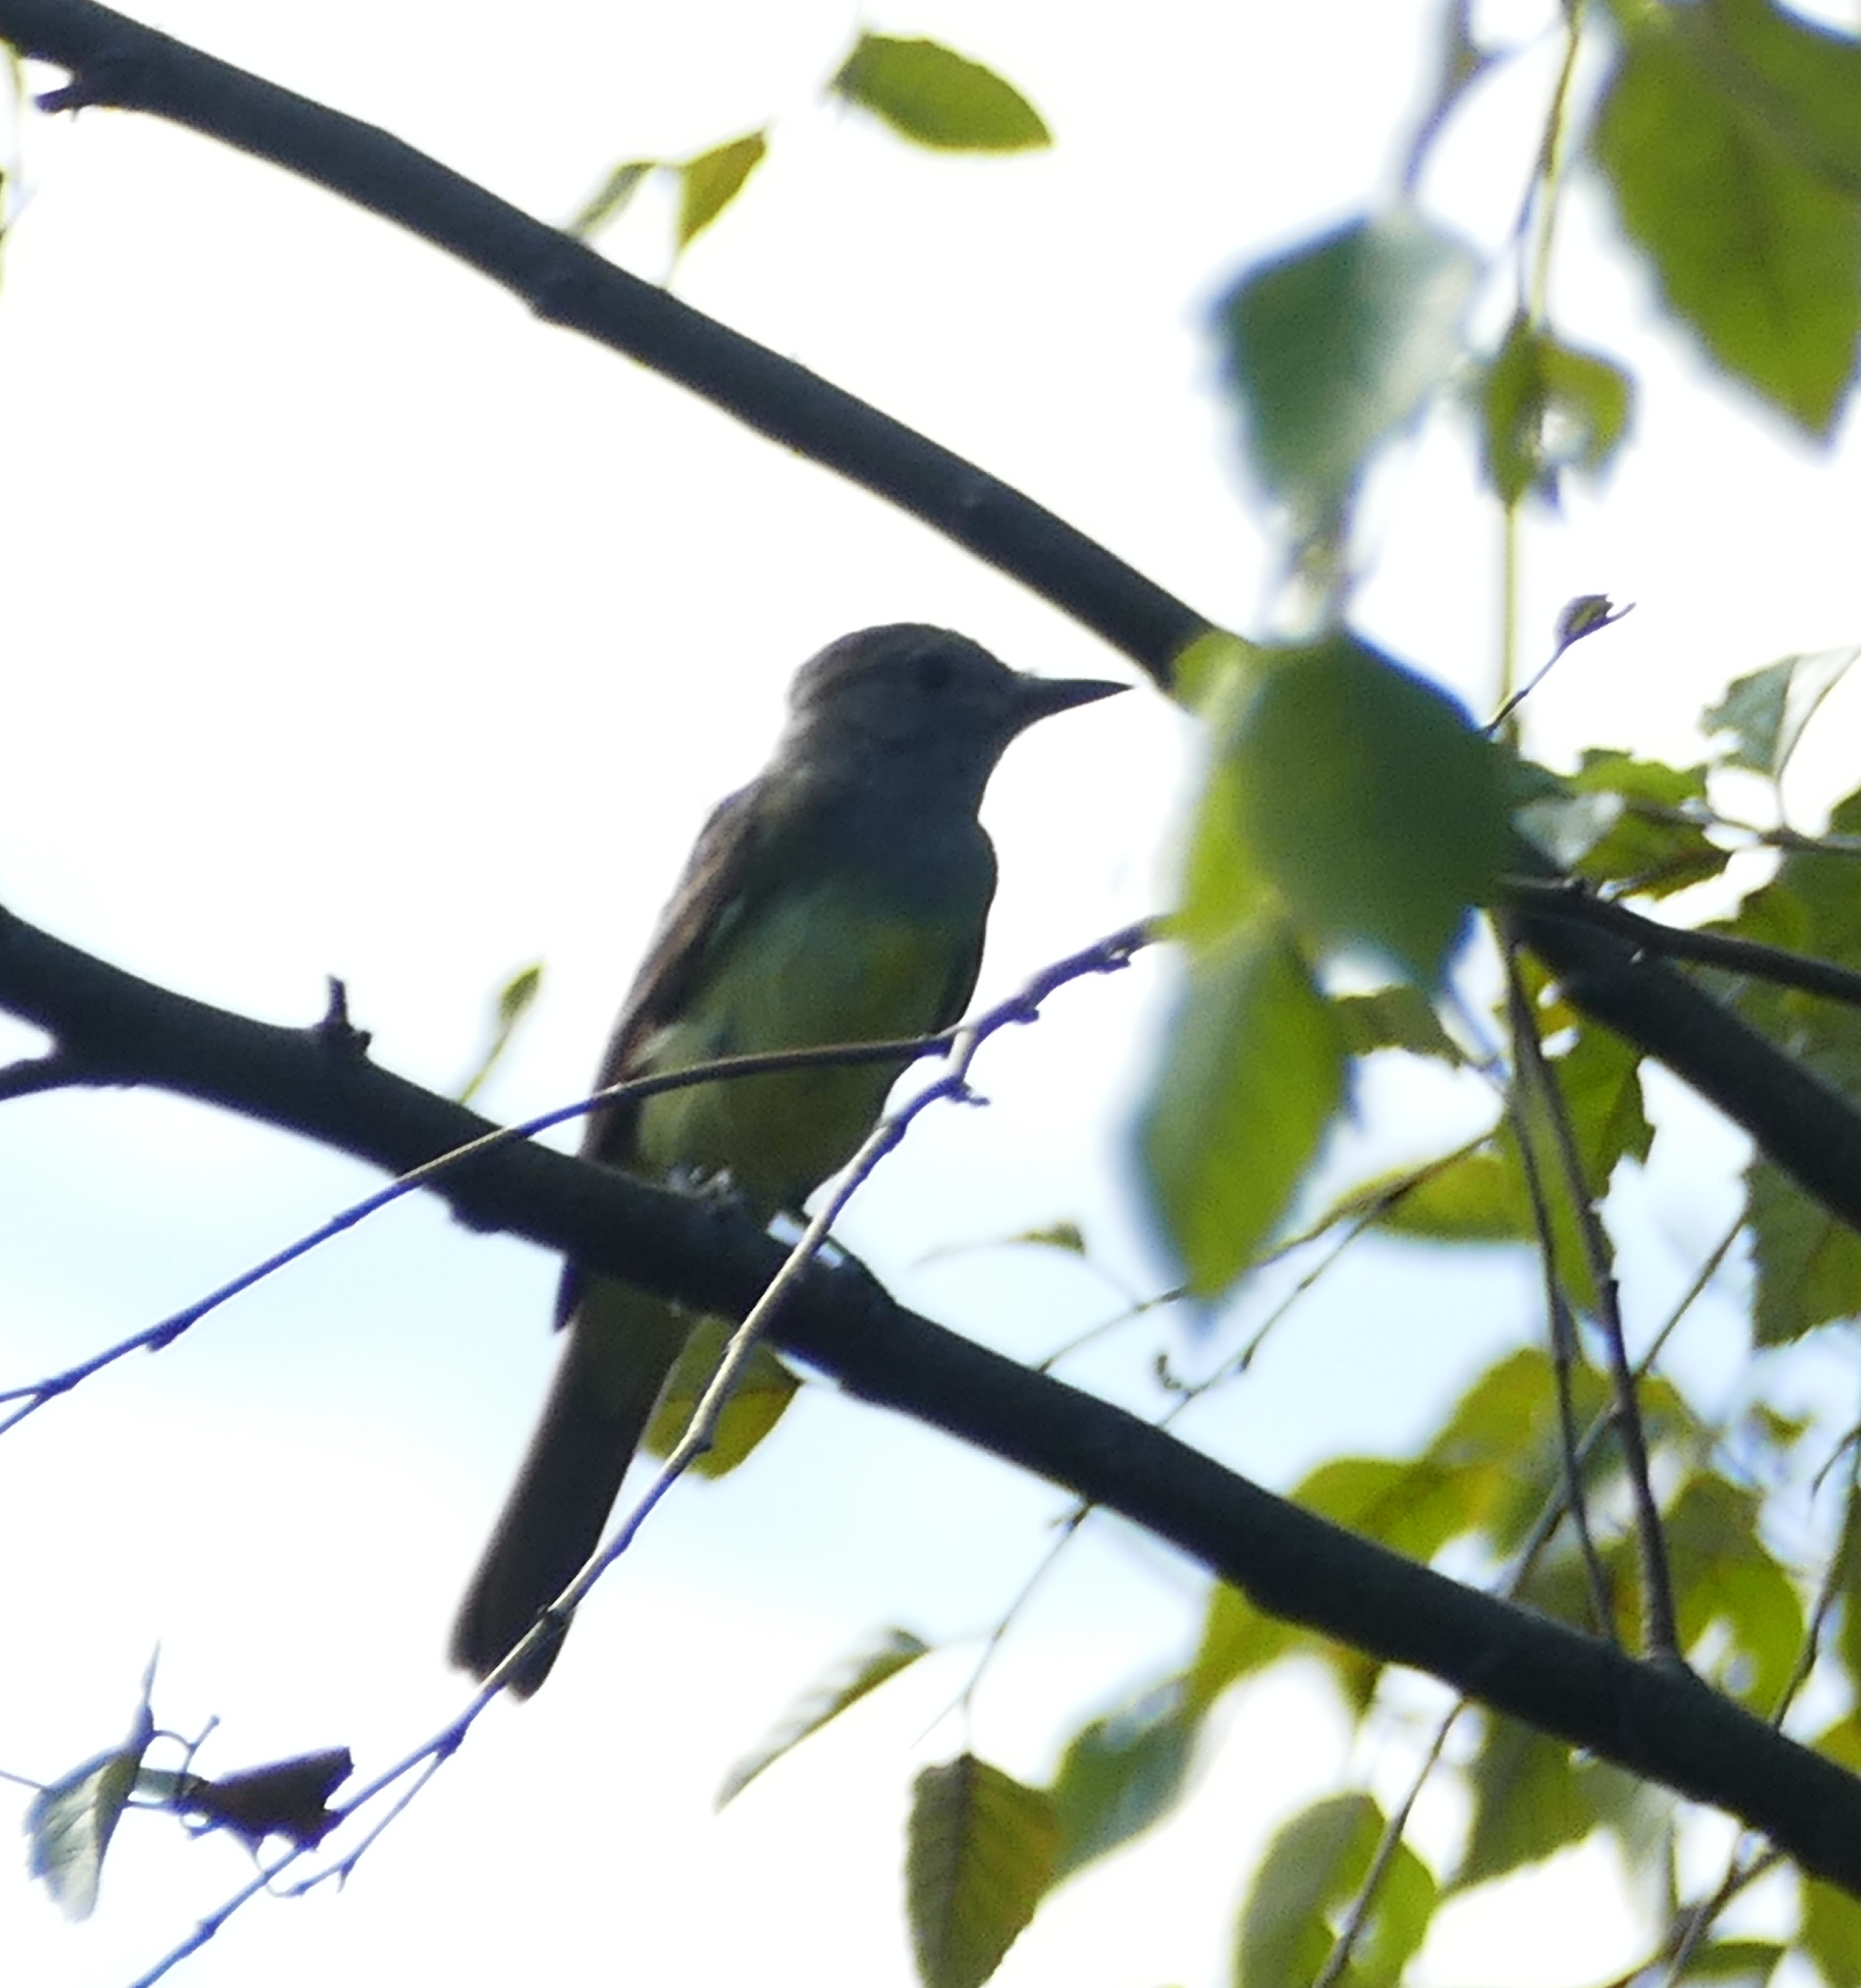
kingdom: Animalia
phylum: Chordata
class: Aves
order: Passeriformes
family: Tyrannidae
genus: Myiarchus
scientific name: Myiarchus crinitus
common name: Great crested flycatcher
